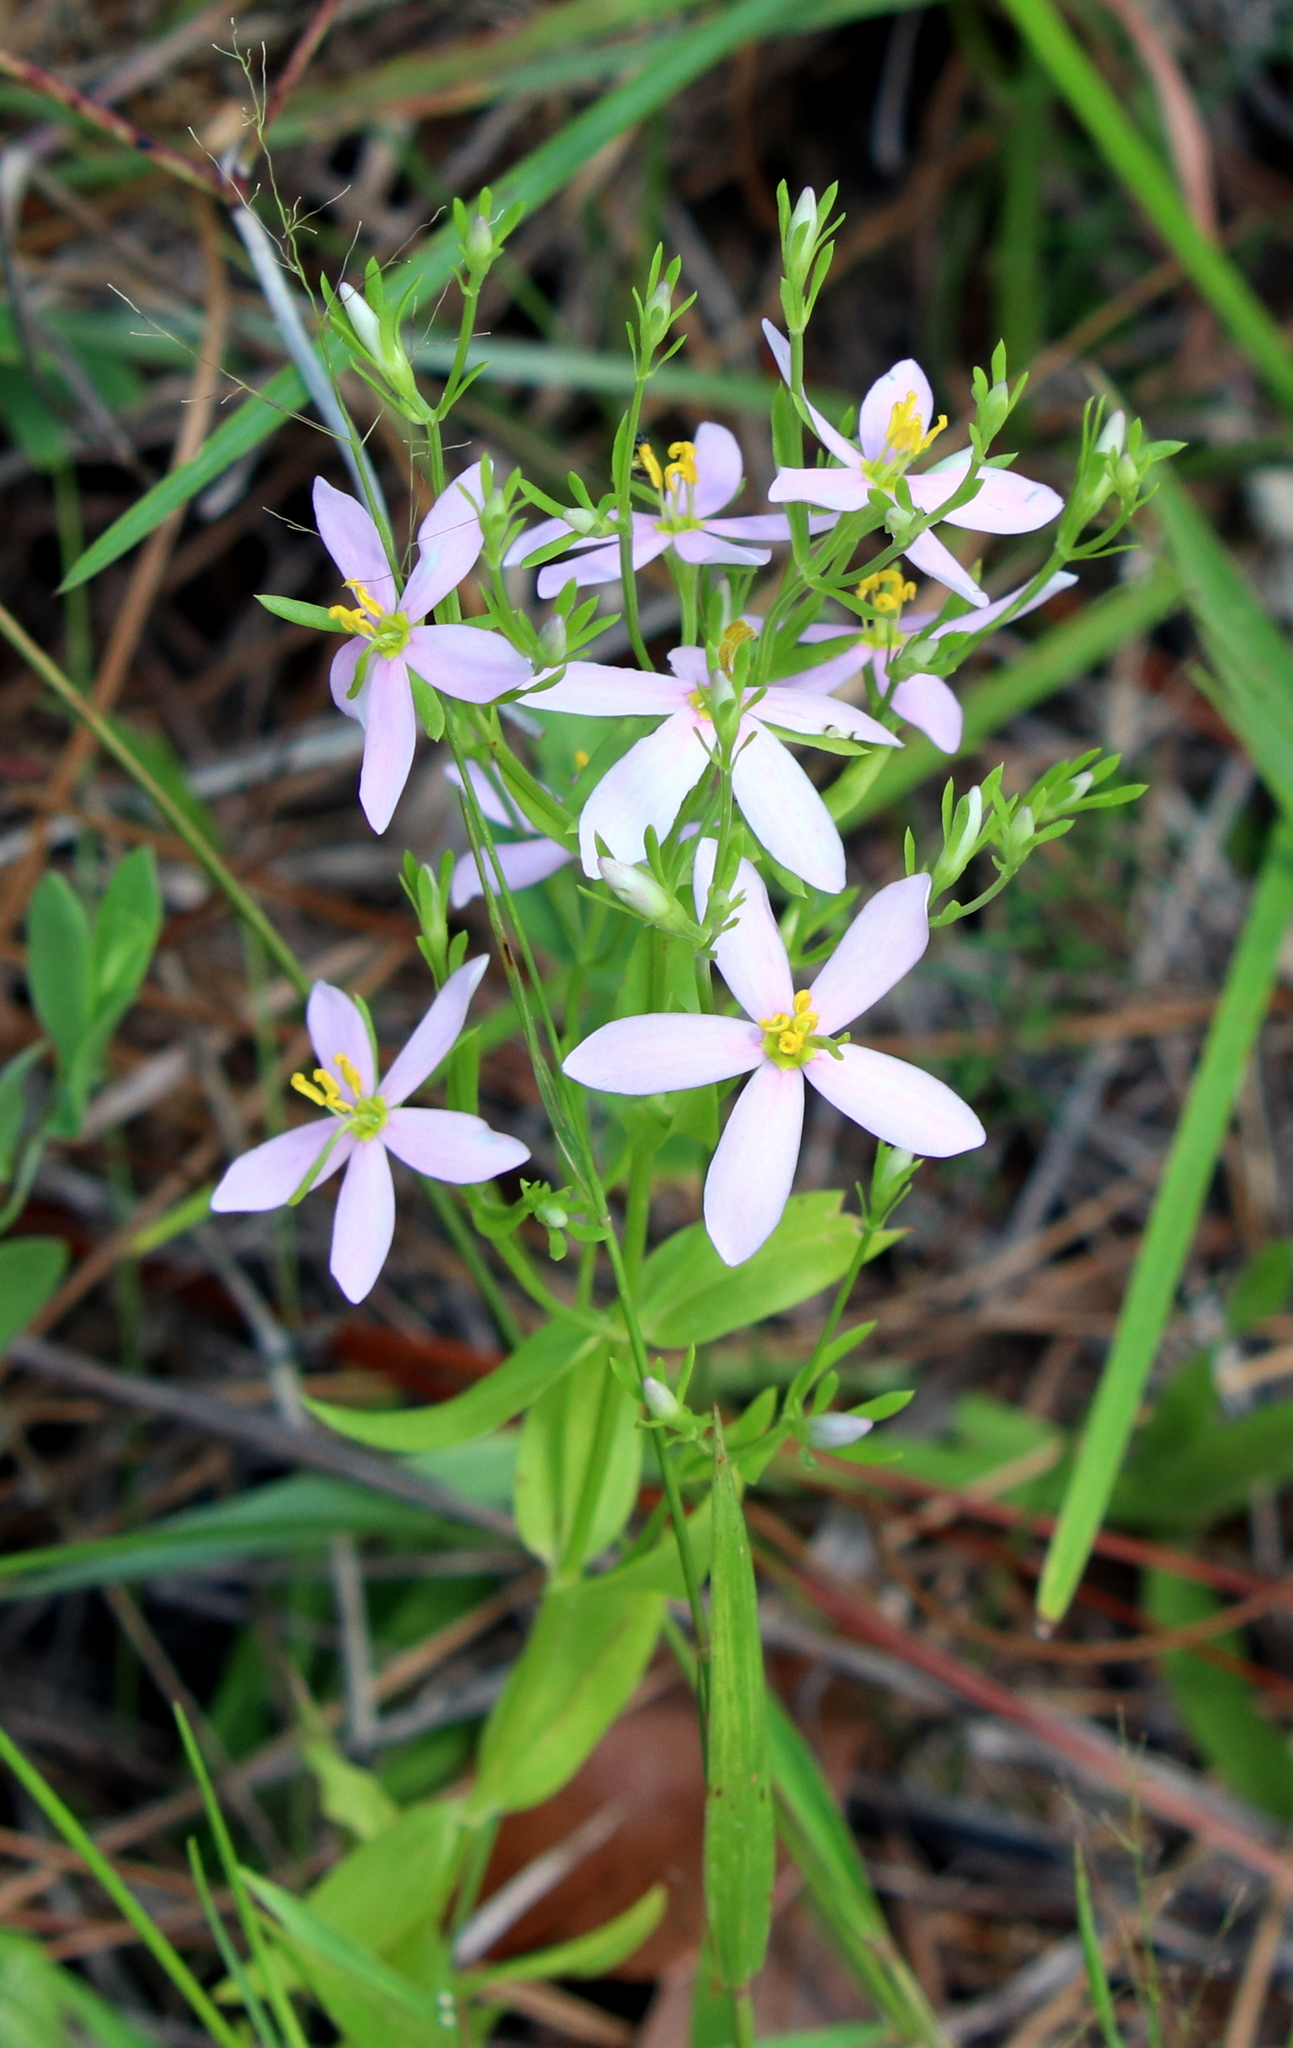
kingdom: Plantae
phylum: Tracheophyta
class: Magnoliopsida
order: Gentianales
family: Gentianaceae
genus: Sabatia
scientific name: Sabatia brachiata
